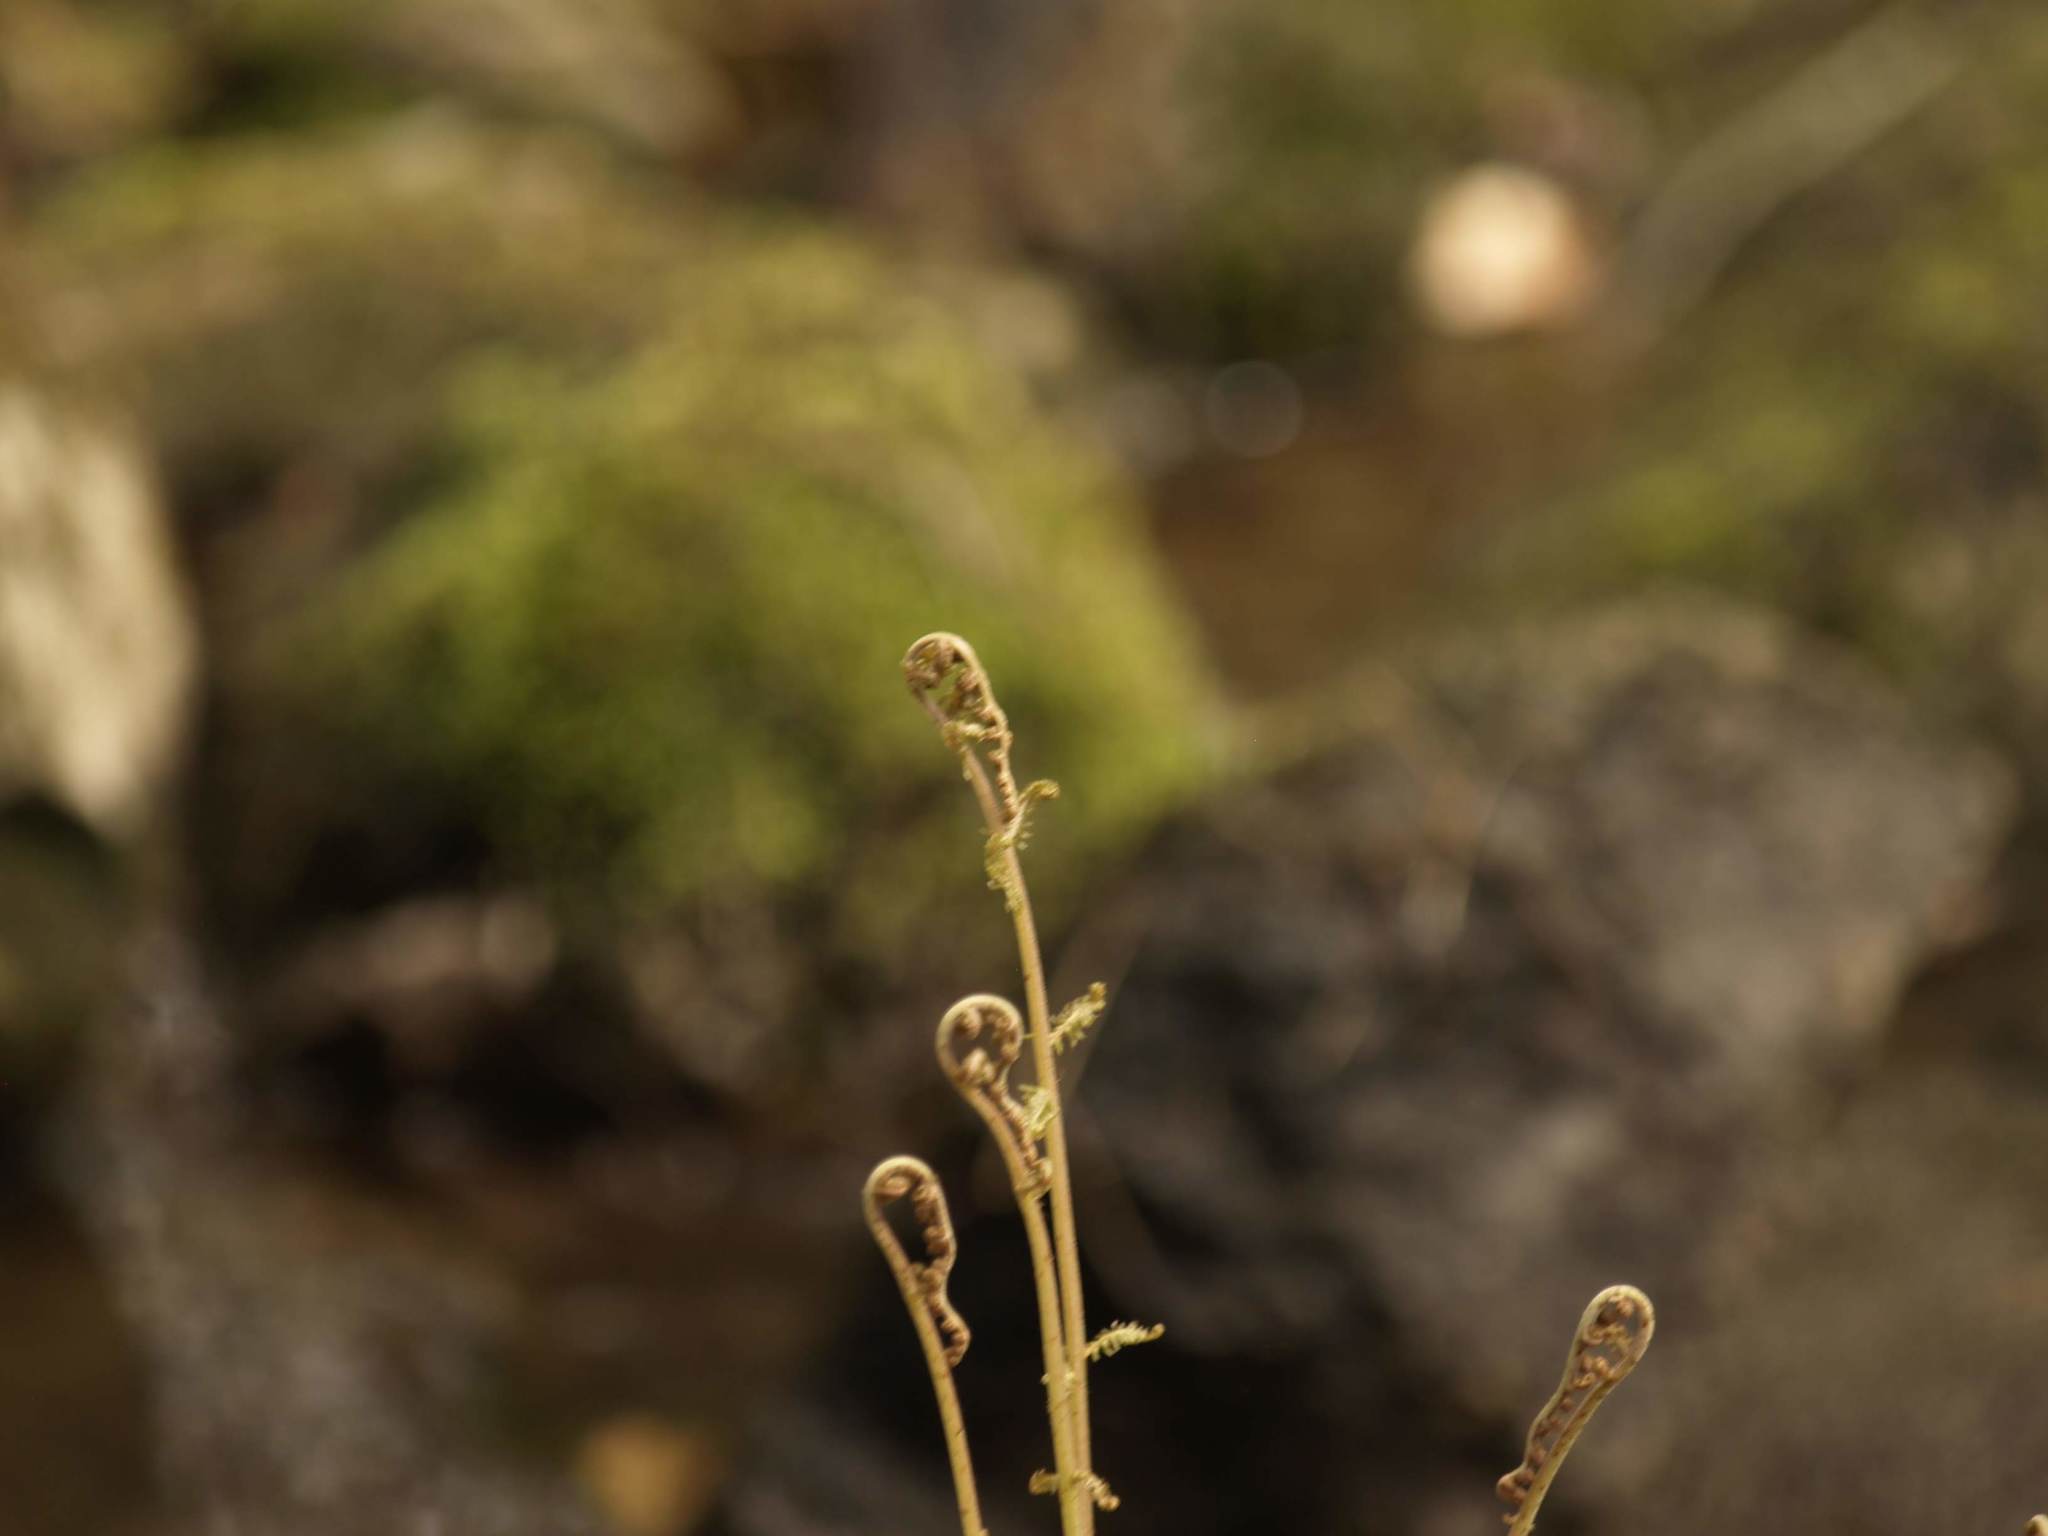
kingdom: Plantae
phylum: Tracheophyta
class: Polypodiopsida
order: Polypodiales
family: Dennstaedtiaceae
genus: Pteridium
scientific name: Pteridium aquilinum
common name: Bracken
